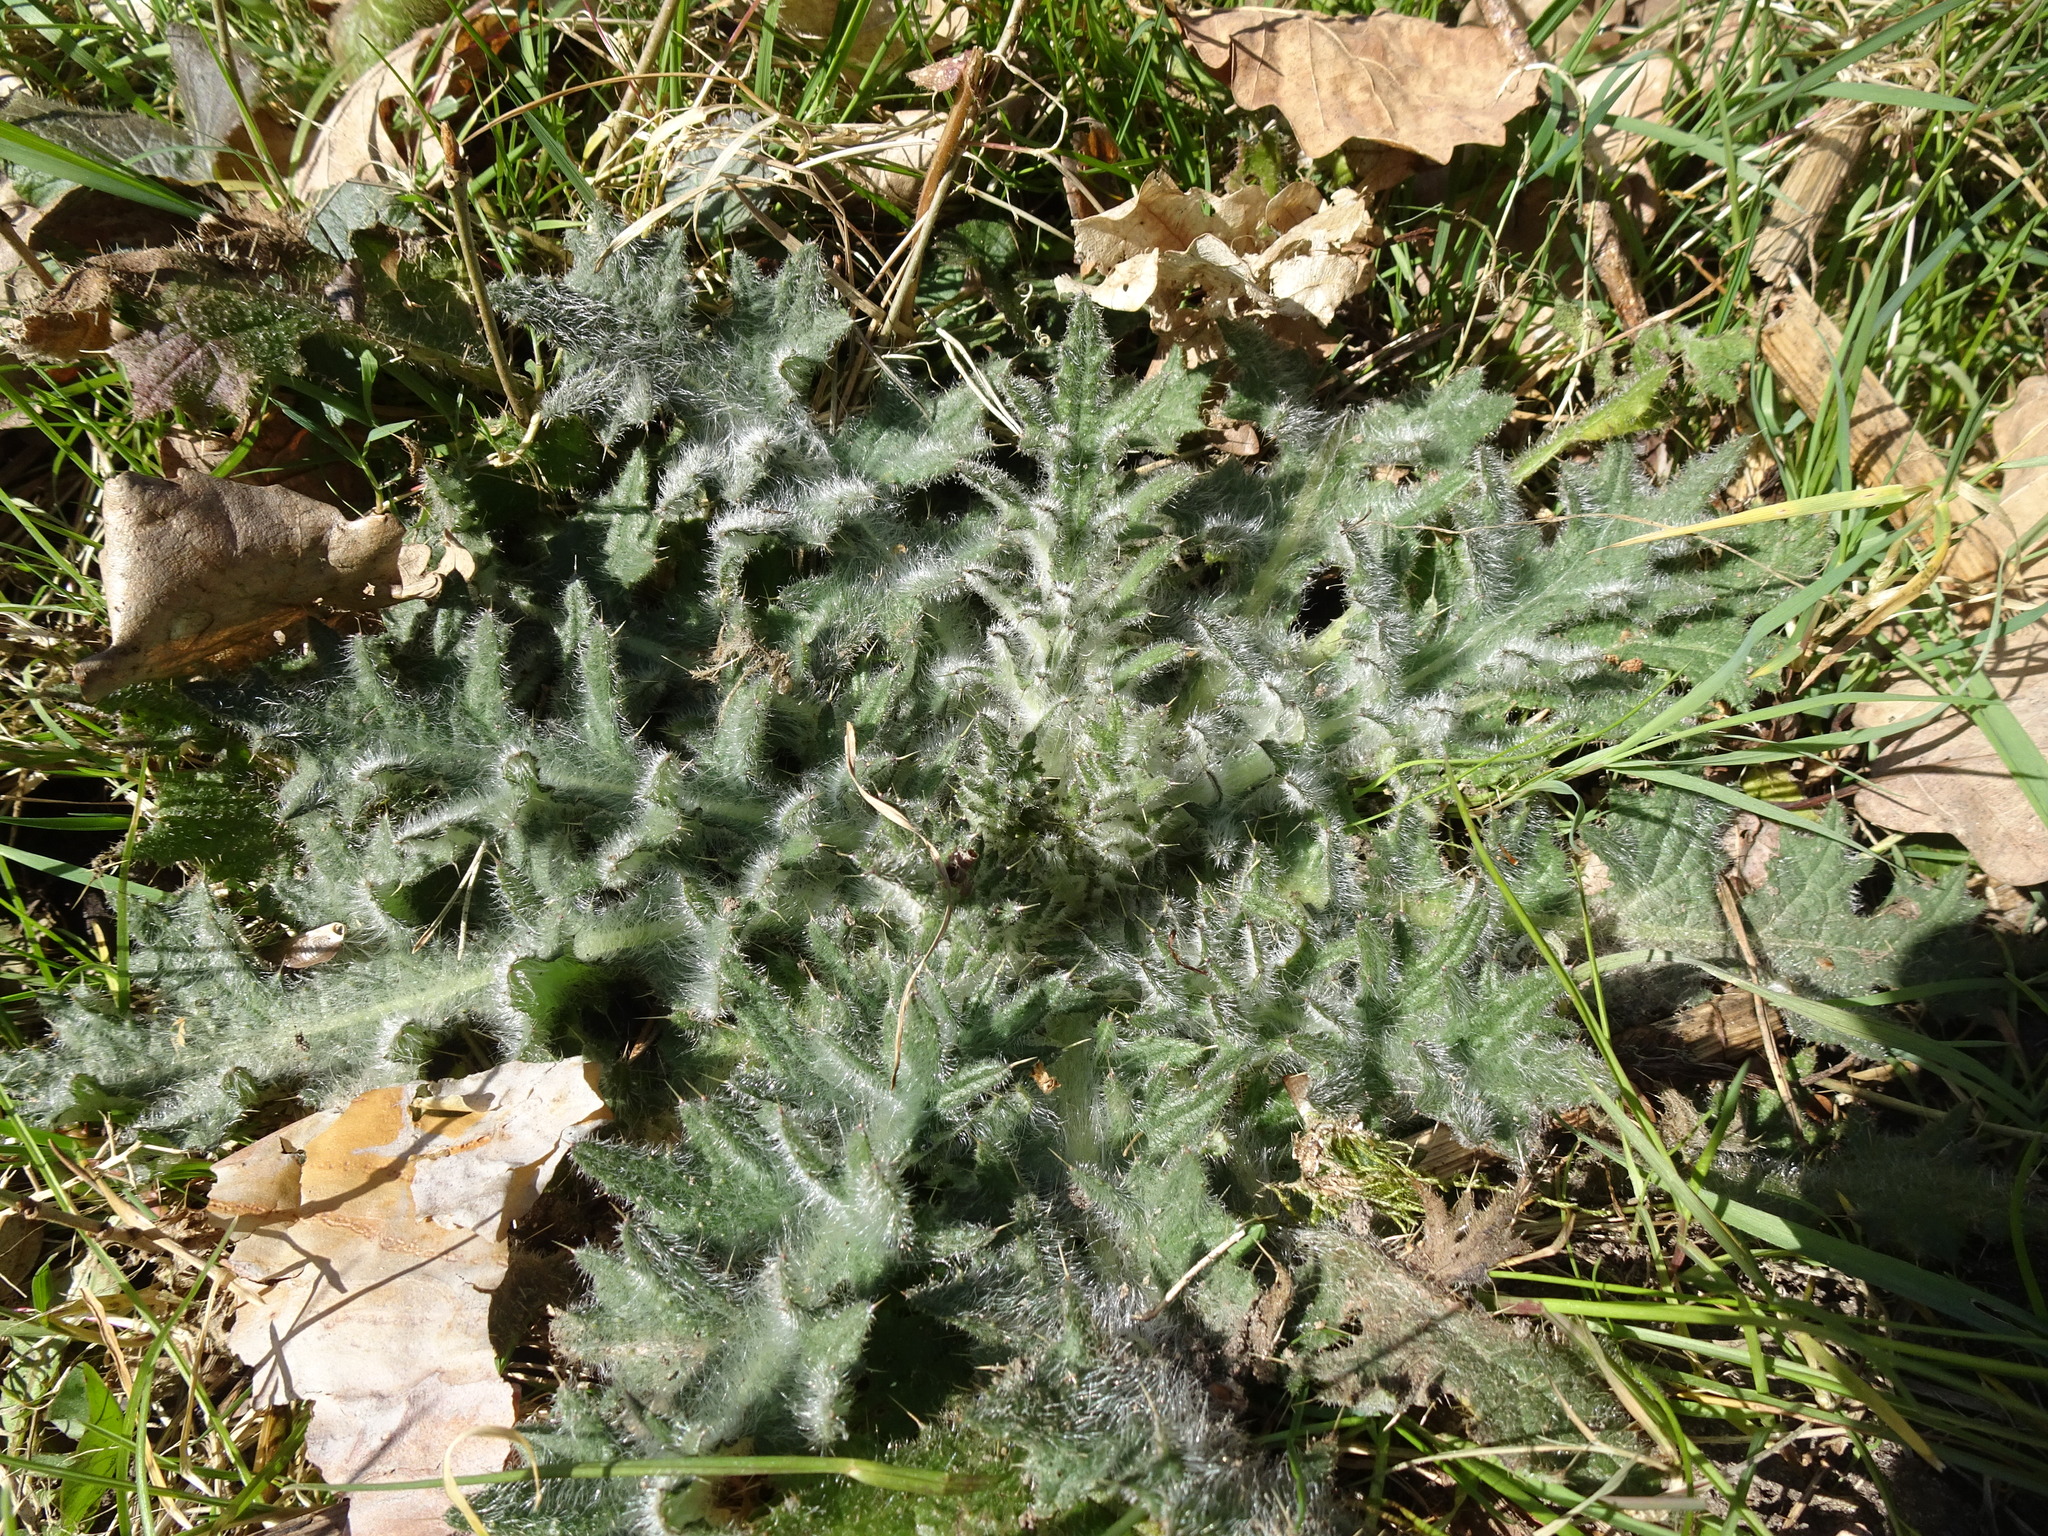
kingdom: Plantae
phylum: Tracheophyta
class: Magnoliopsida
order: Asterales
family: Asteraceae
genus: Cirsium
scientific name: Cirsium vulgare
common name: Bull thistle
